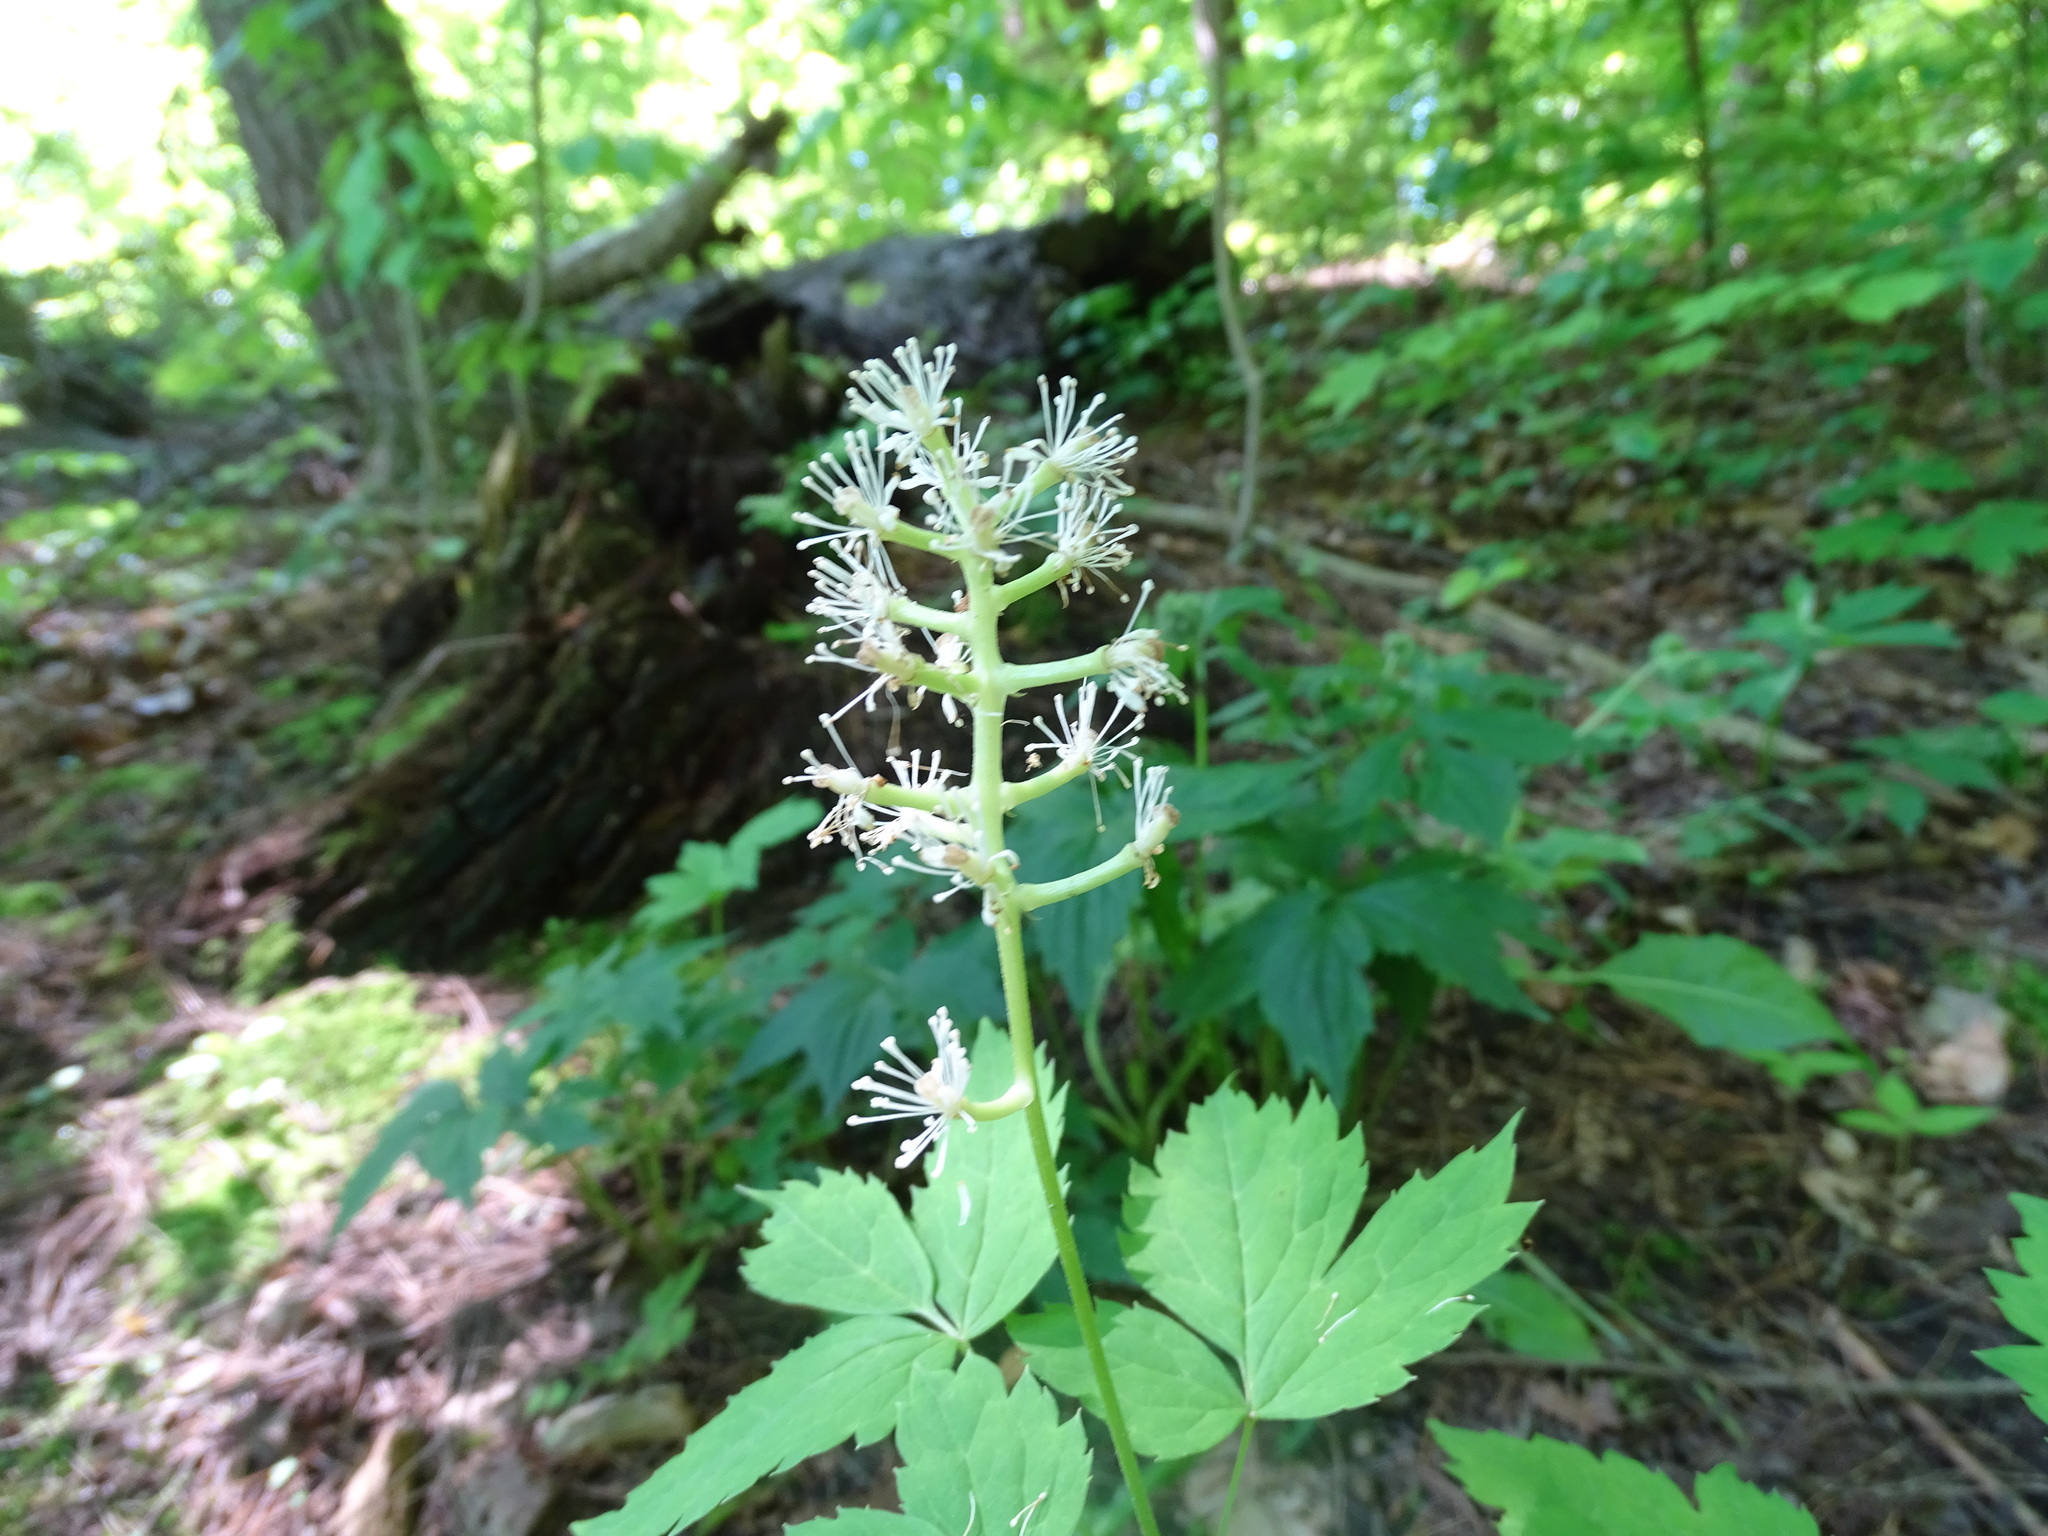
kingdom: Plantae
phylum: Tracheophyta
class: Magnoliopsida
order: Ranunculales
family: Ranunculaceae
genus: Actaea
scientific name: Actaea pachypoda
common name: Doll's-eyes
